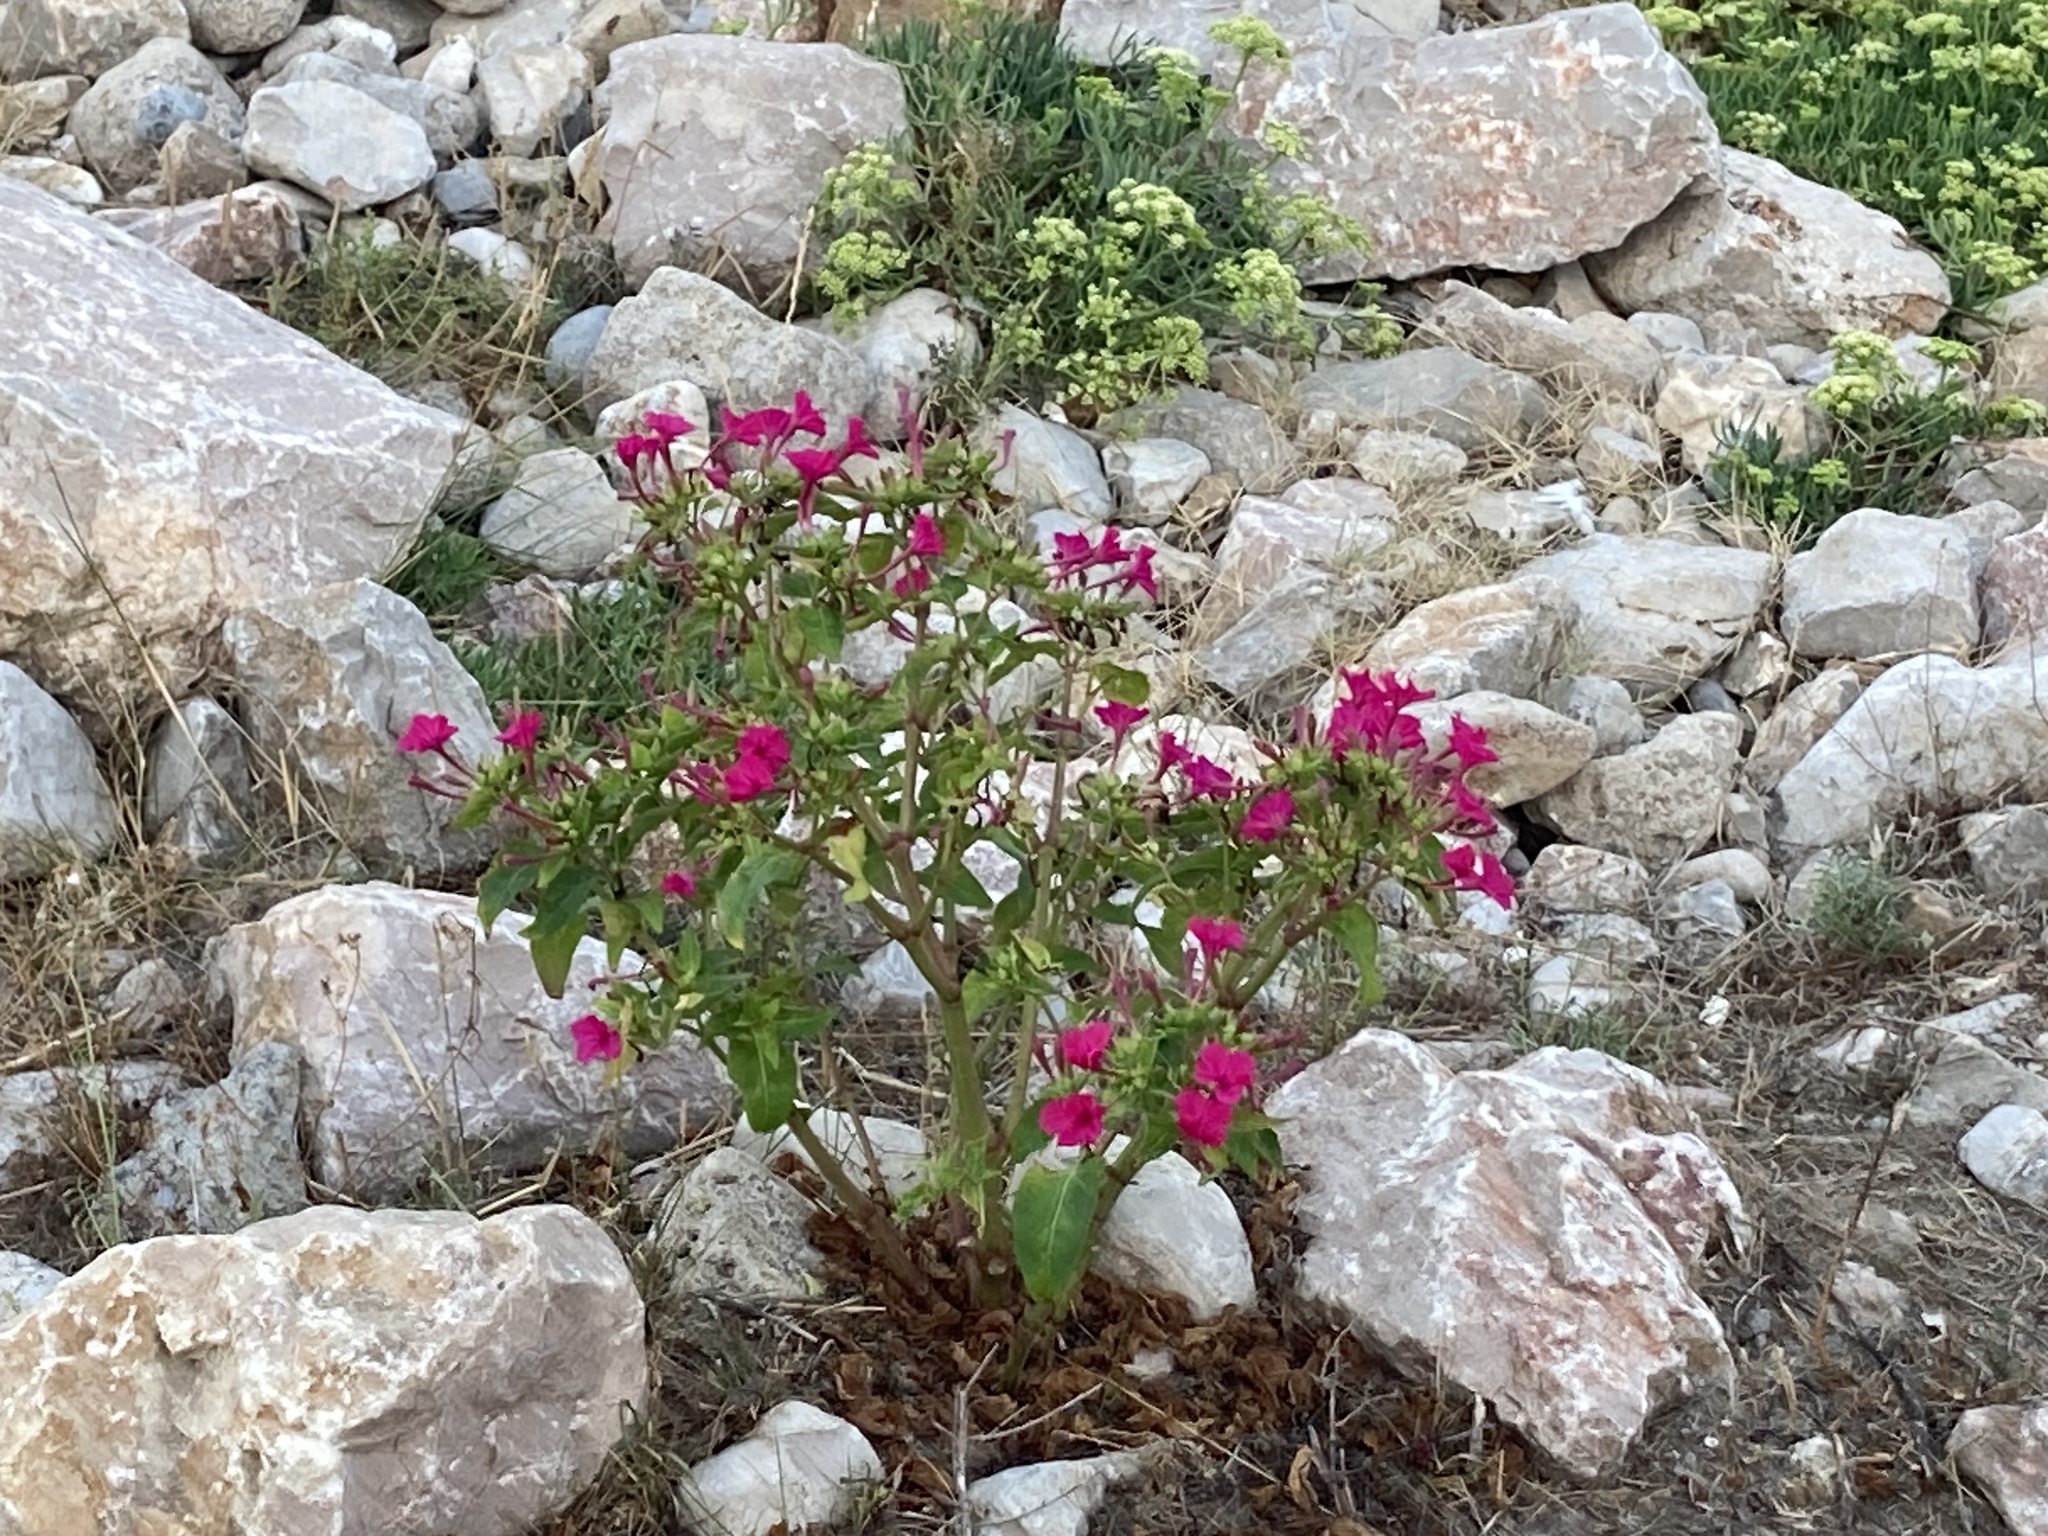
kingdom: Plantae
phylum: Tracheophyta
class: Magnoliopsida
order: Caryophyllales
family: Nyctaginaceae
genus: Mirabilis
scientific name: Mirabilis jalapa
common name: Marvel-of-peru
